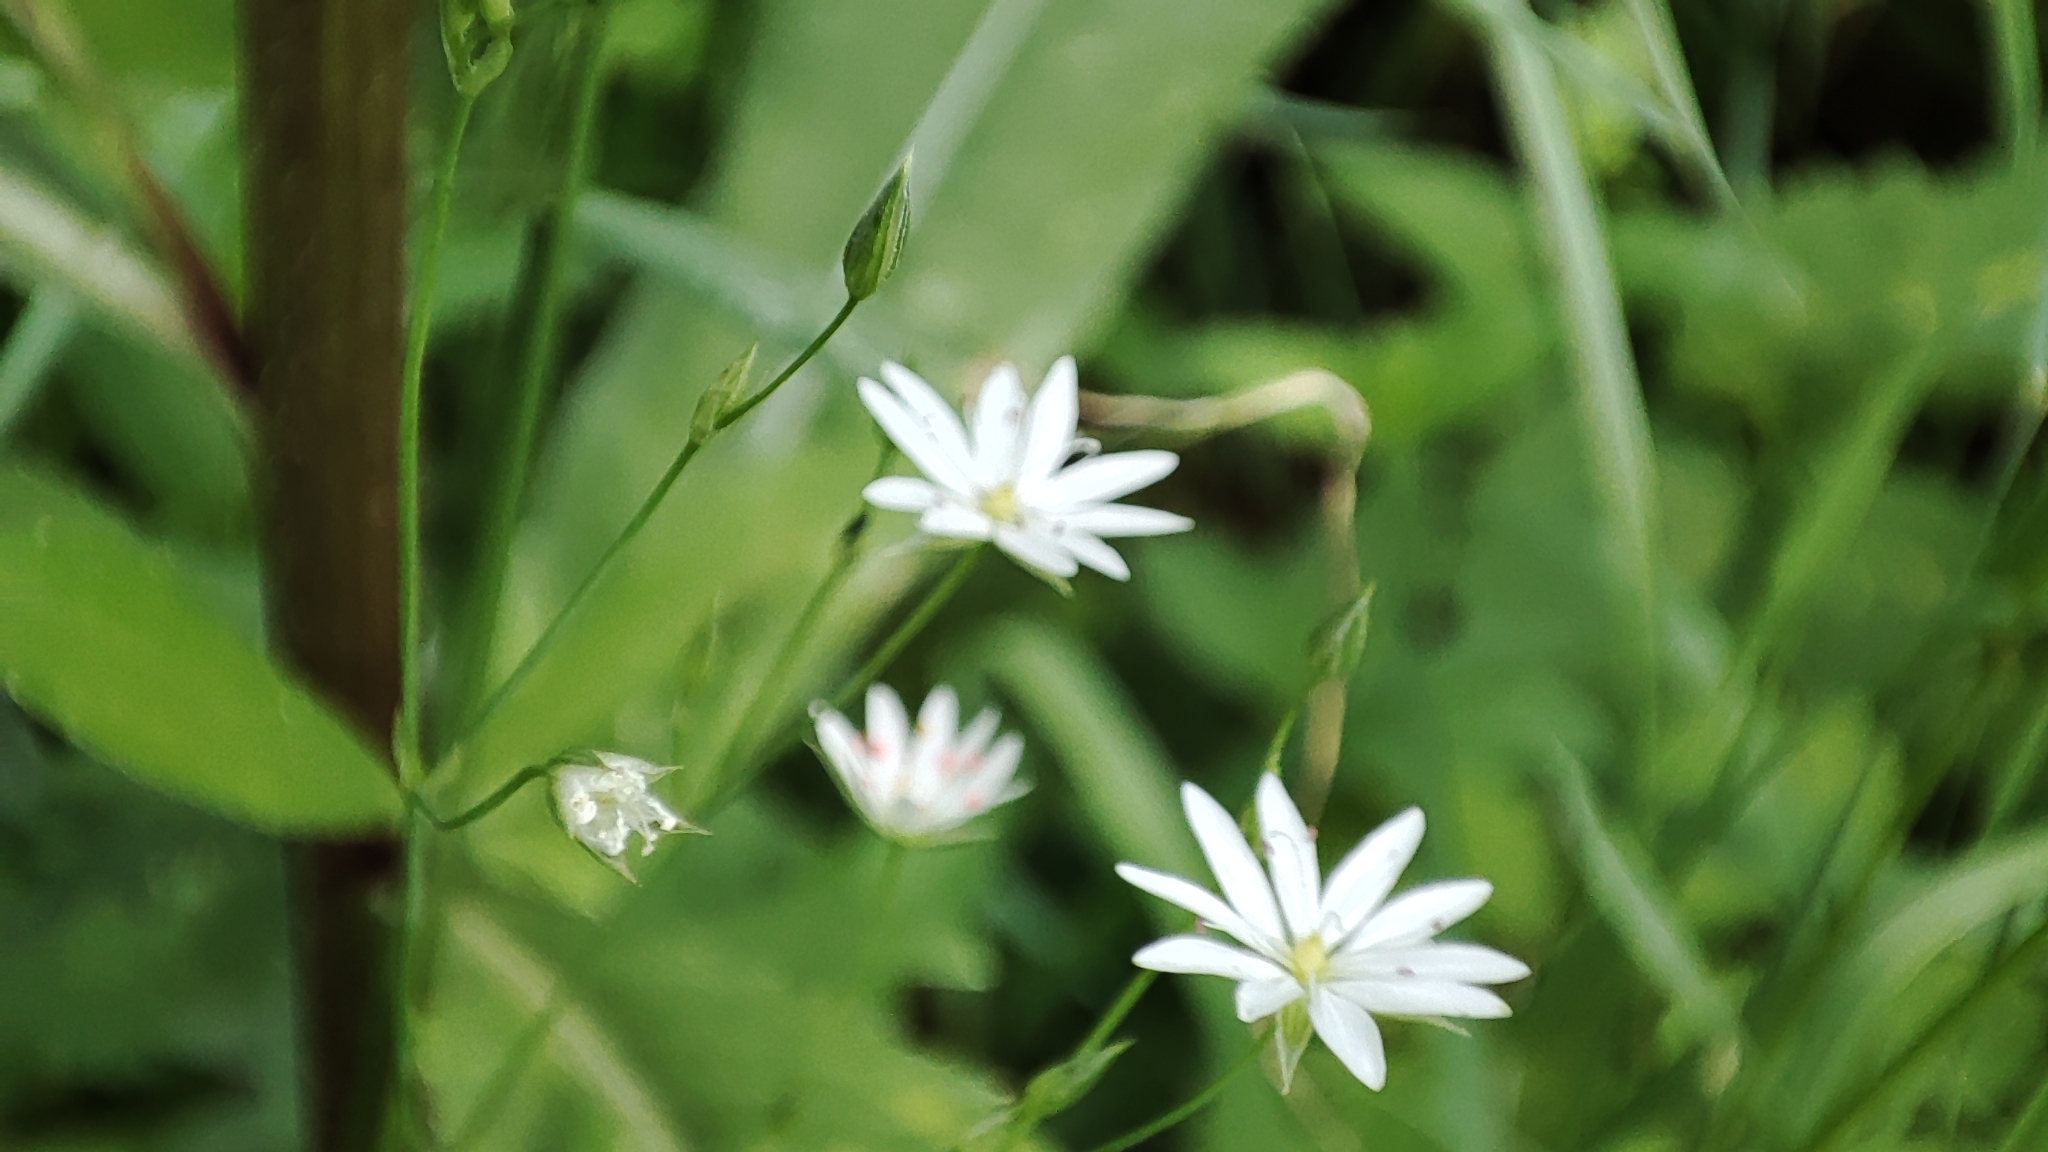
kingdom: Plantae
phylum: Tracheophyta
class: Magnoliopsida
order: Caryophyllales
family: Caryophyllaceae
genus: Stellaria
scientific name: Stellaria graminea
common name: Grass-like starwort
